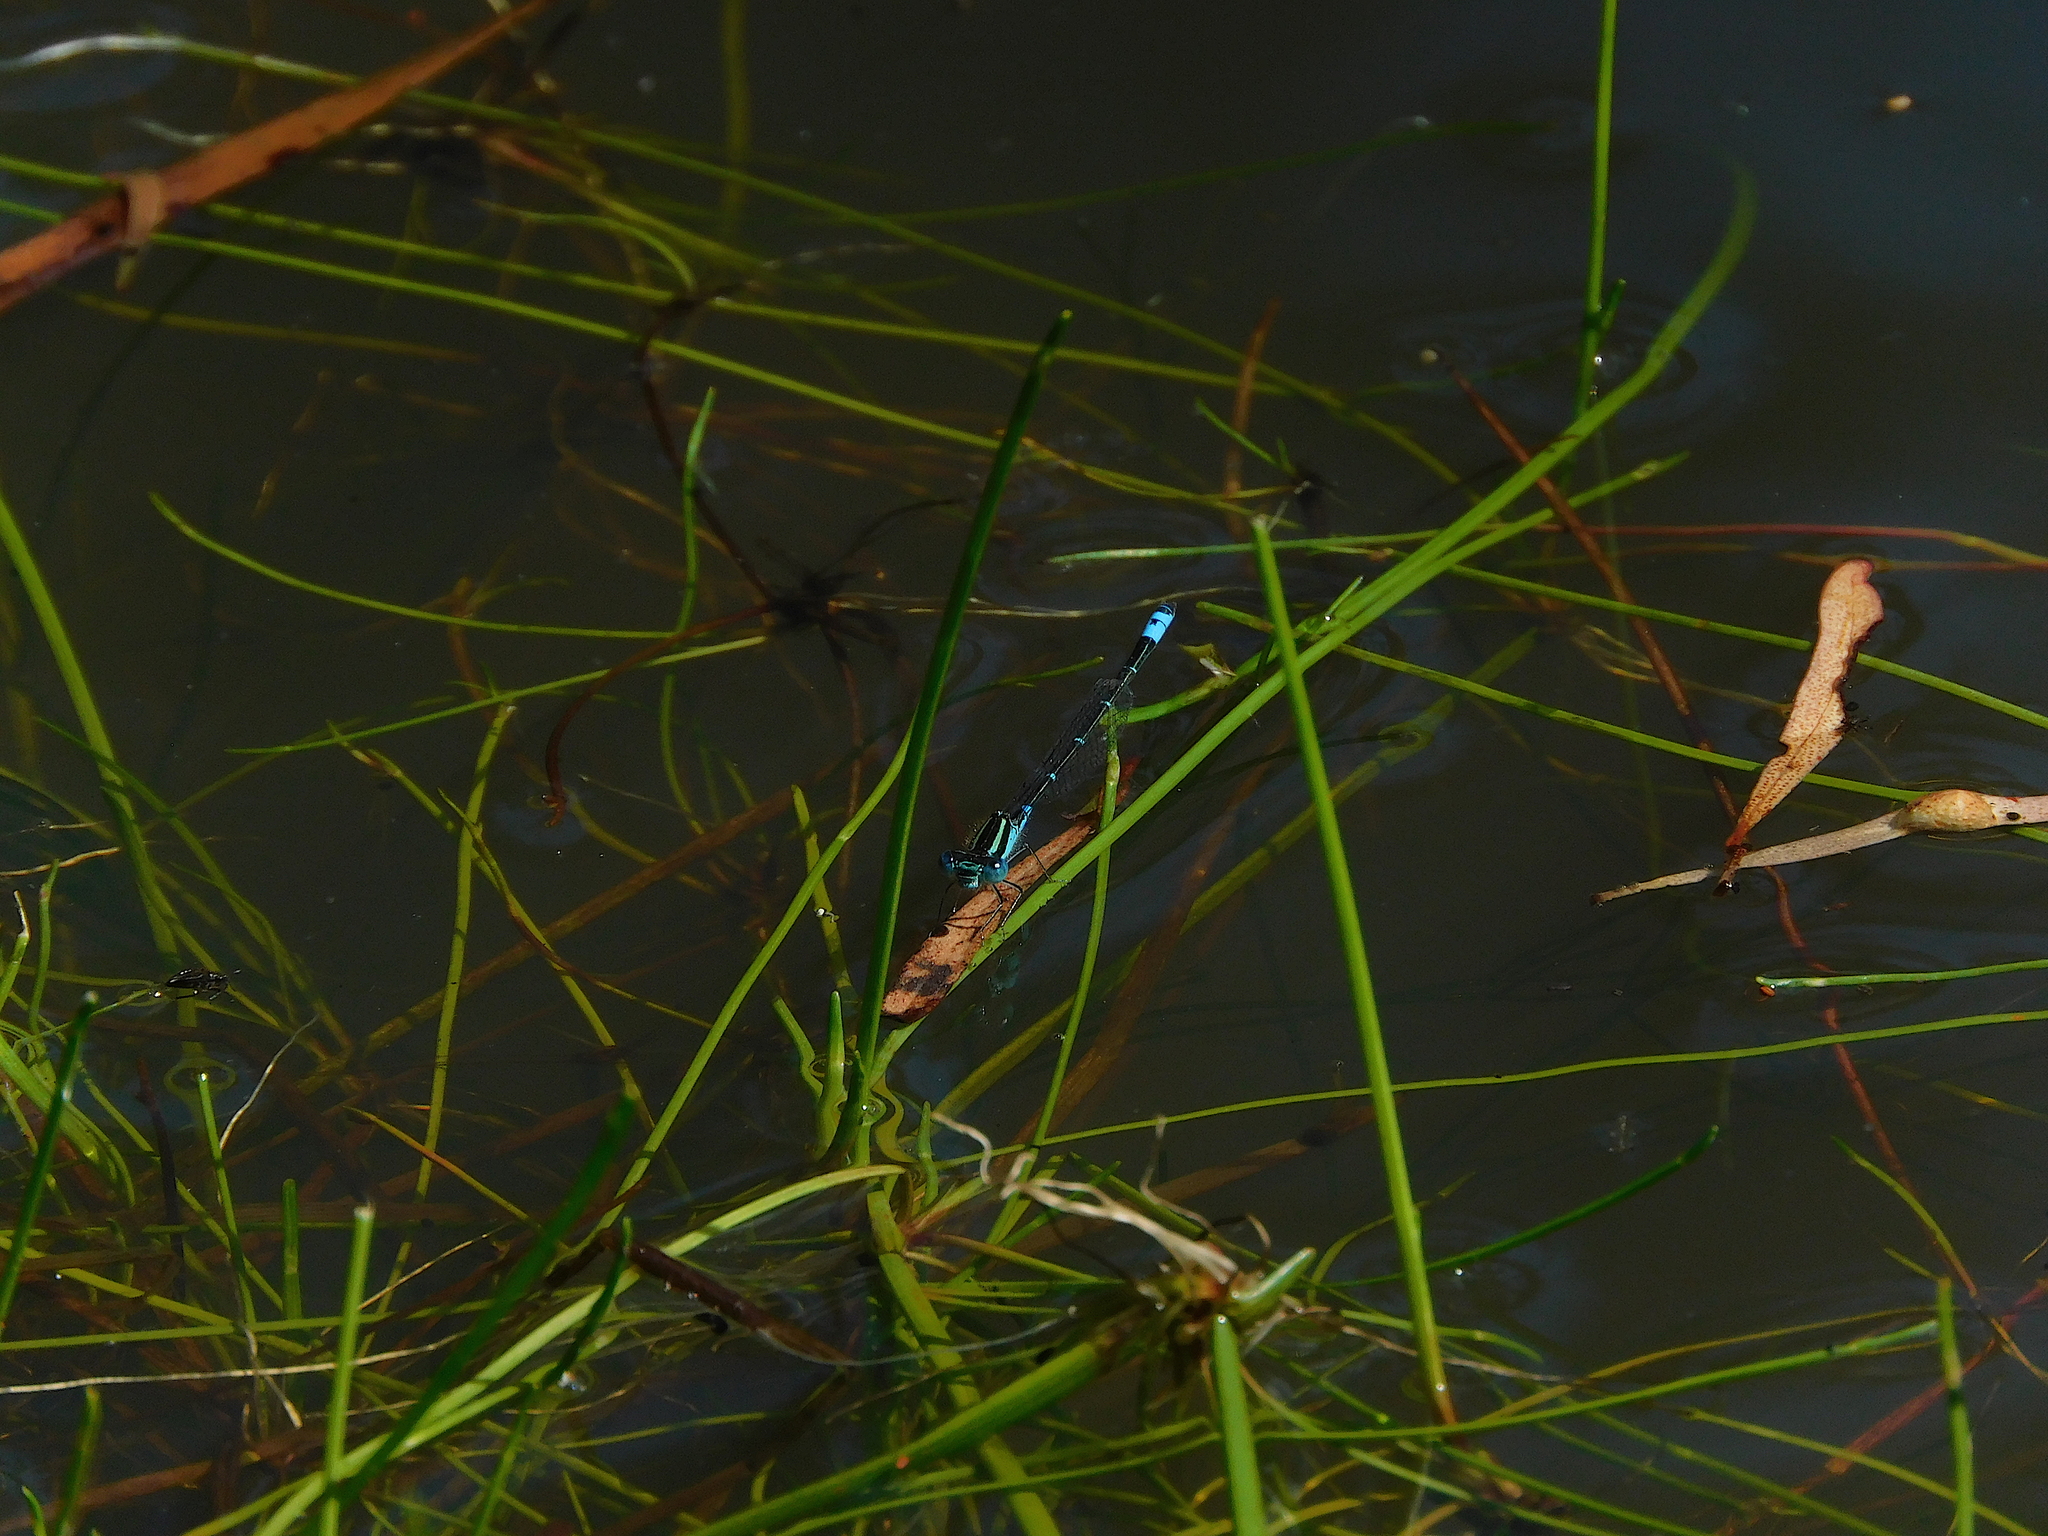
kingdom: Animalia
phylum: Arthropoda
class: Insecta
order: Odonata
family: Coenagrionidae
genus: Austroagrion
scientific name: Austroagrion watsoni
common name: Eastern billabongfly
